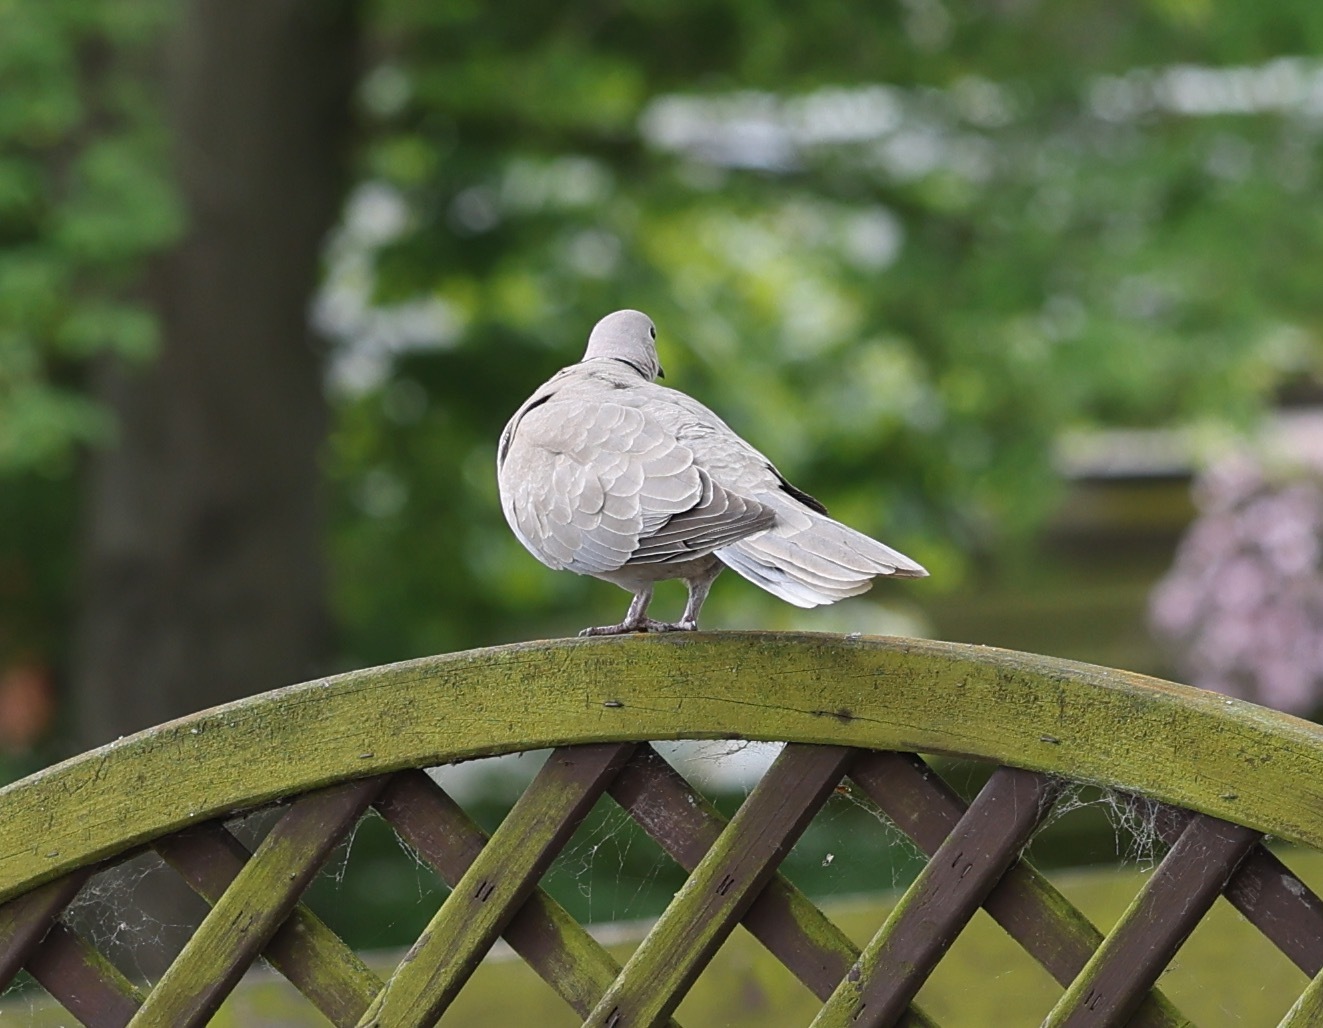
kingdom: Animalia
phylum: Chordata
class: Aves
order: Columbiformes
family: Columbidae
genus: Streptopelia
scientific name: Streptopelia decaocto
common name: Eurasian collared dove
